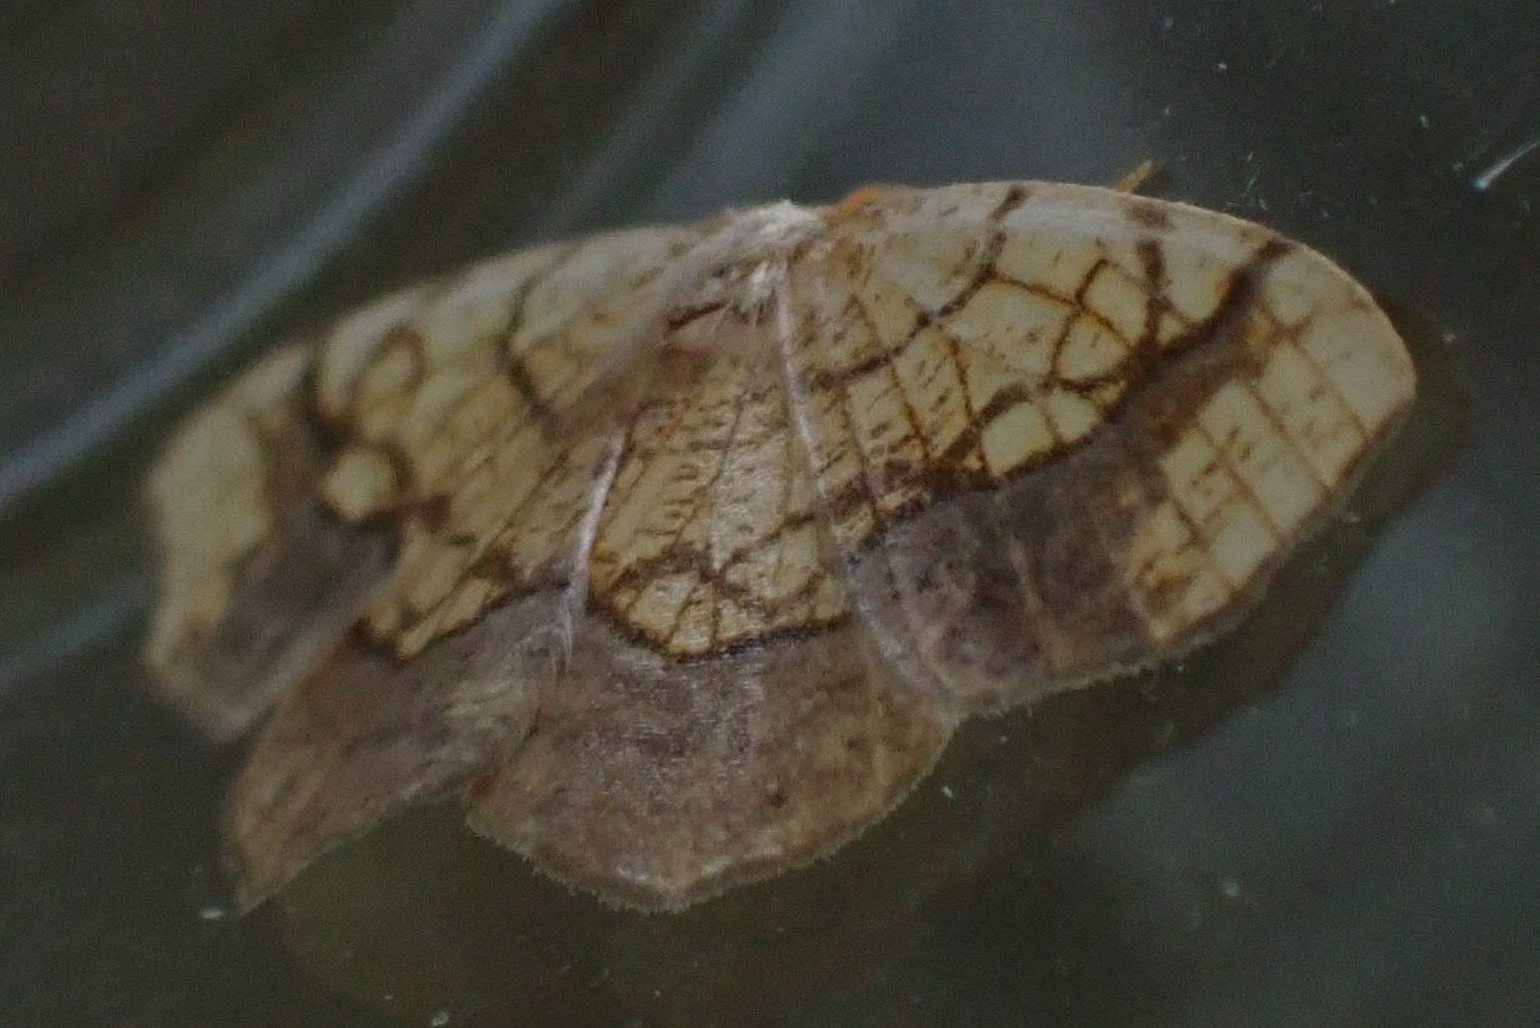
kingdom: Animalia
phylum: Arthropoda
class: Insecta
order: Lepidoptera
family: Geometridae
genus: Nematocampa
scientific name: Nematocampa resistaria
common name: Horned spanworm moth
